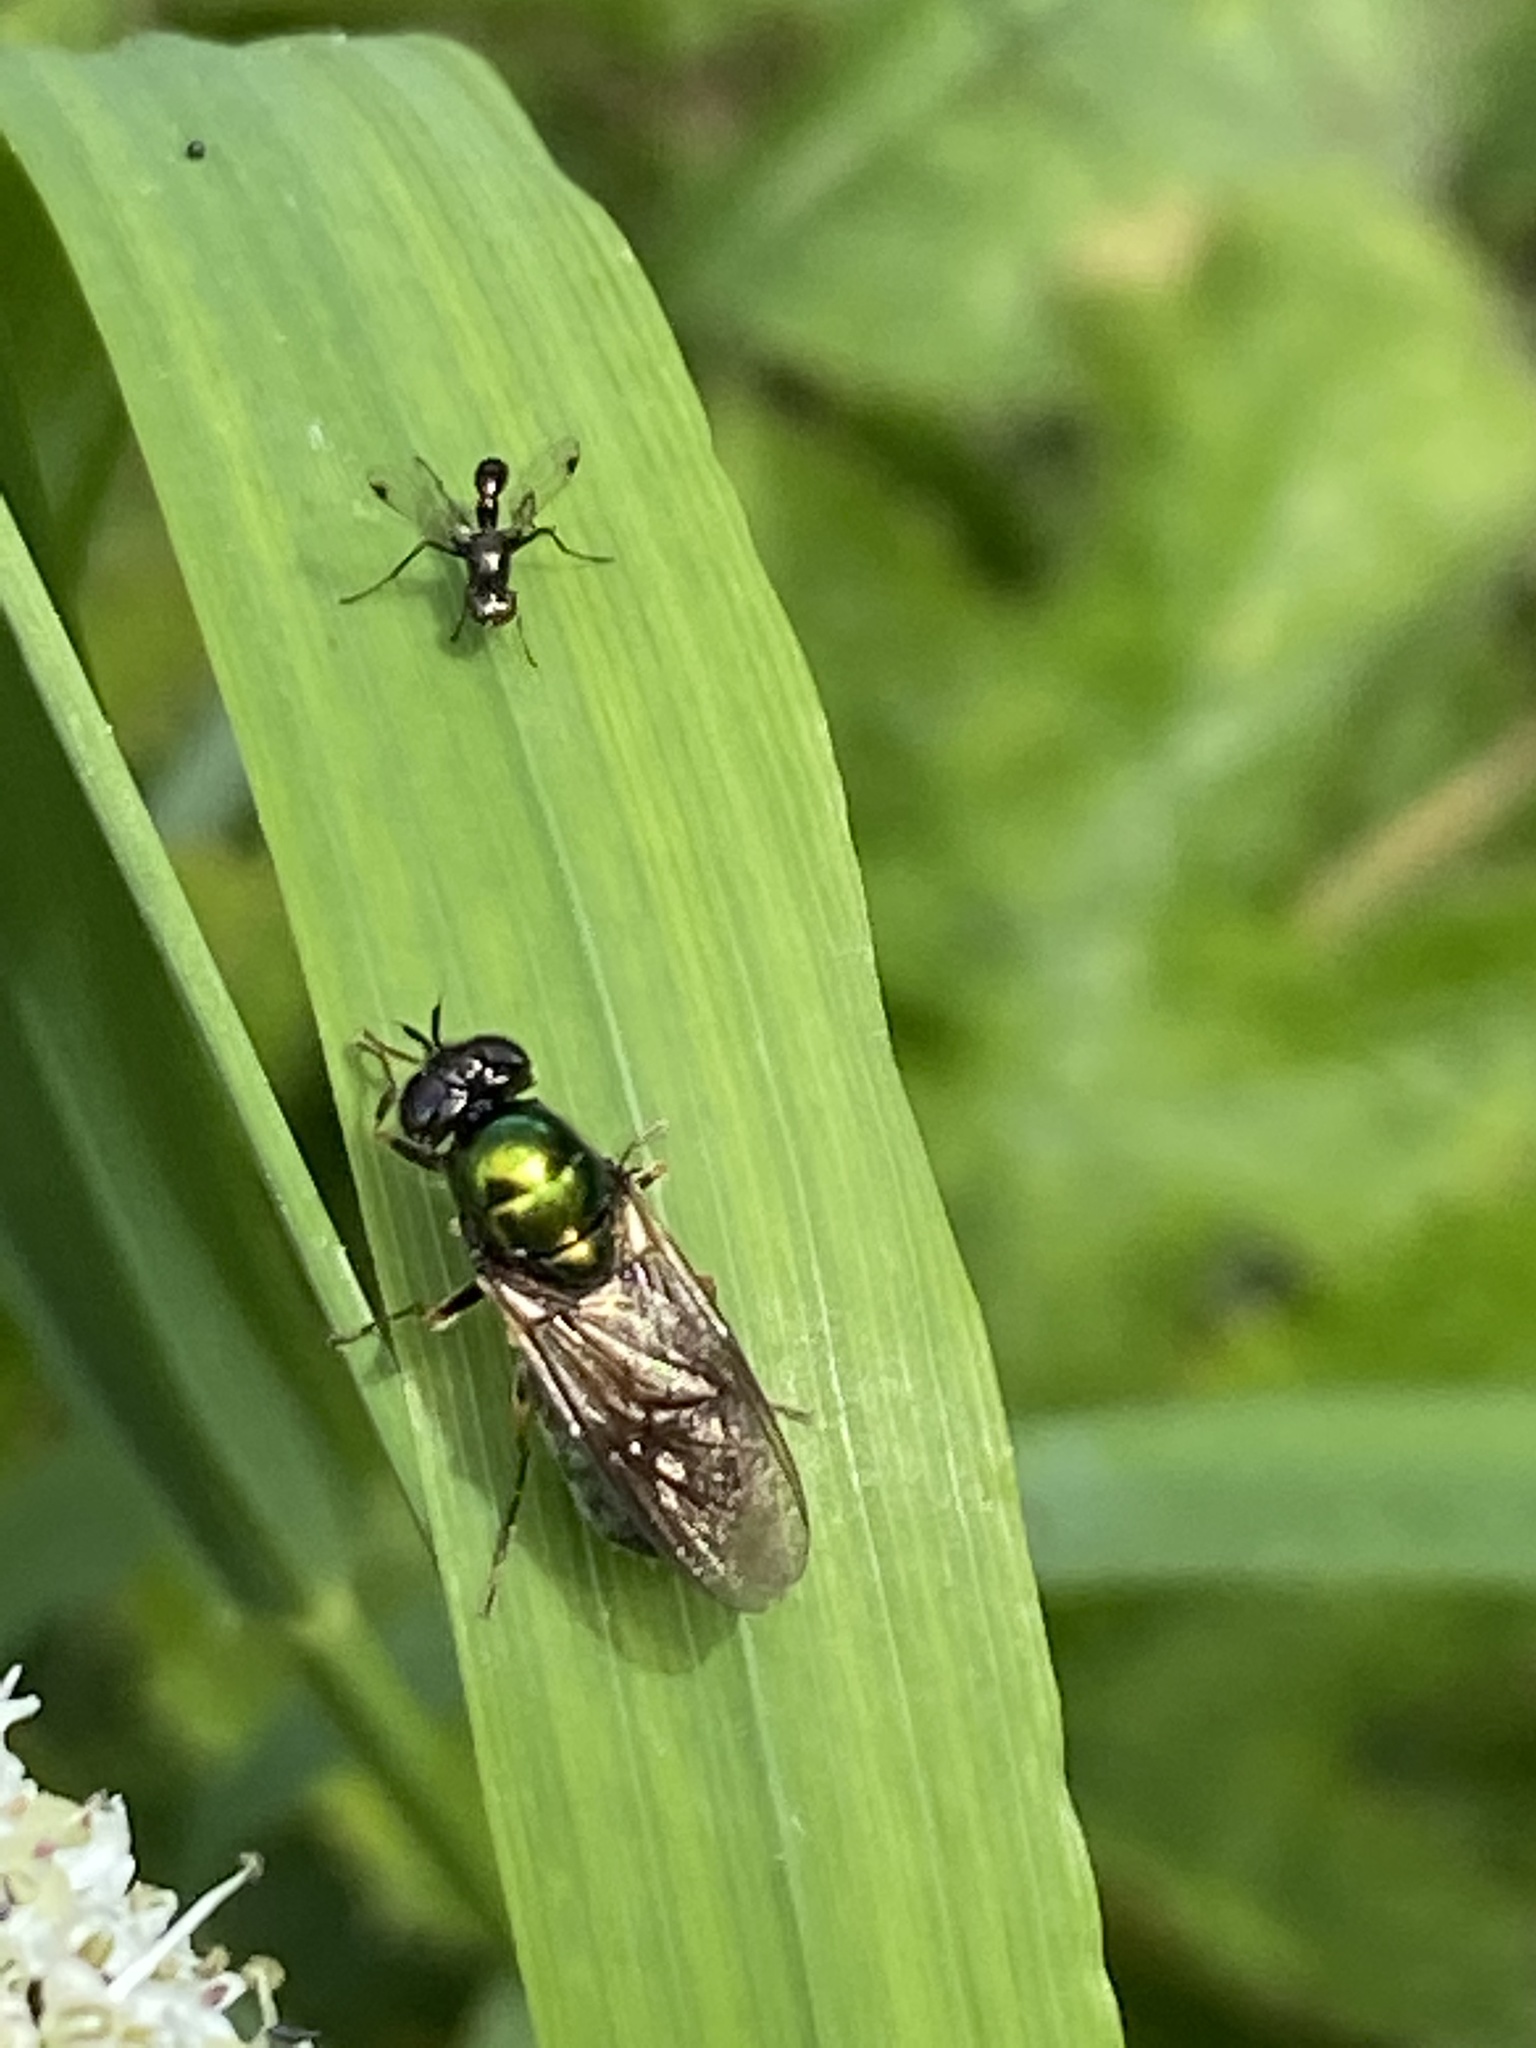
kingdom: Animalia
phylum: Arthropoda
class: Insecta
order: Diptera
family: Stratiomyidae
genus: Chloromyia
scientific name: Chloromyia formosa
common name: Soldier fly
